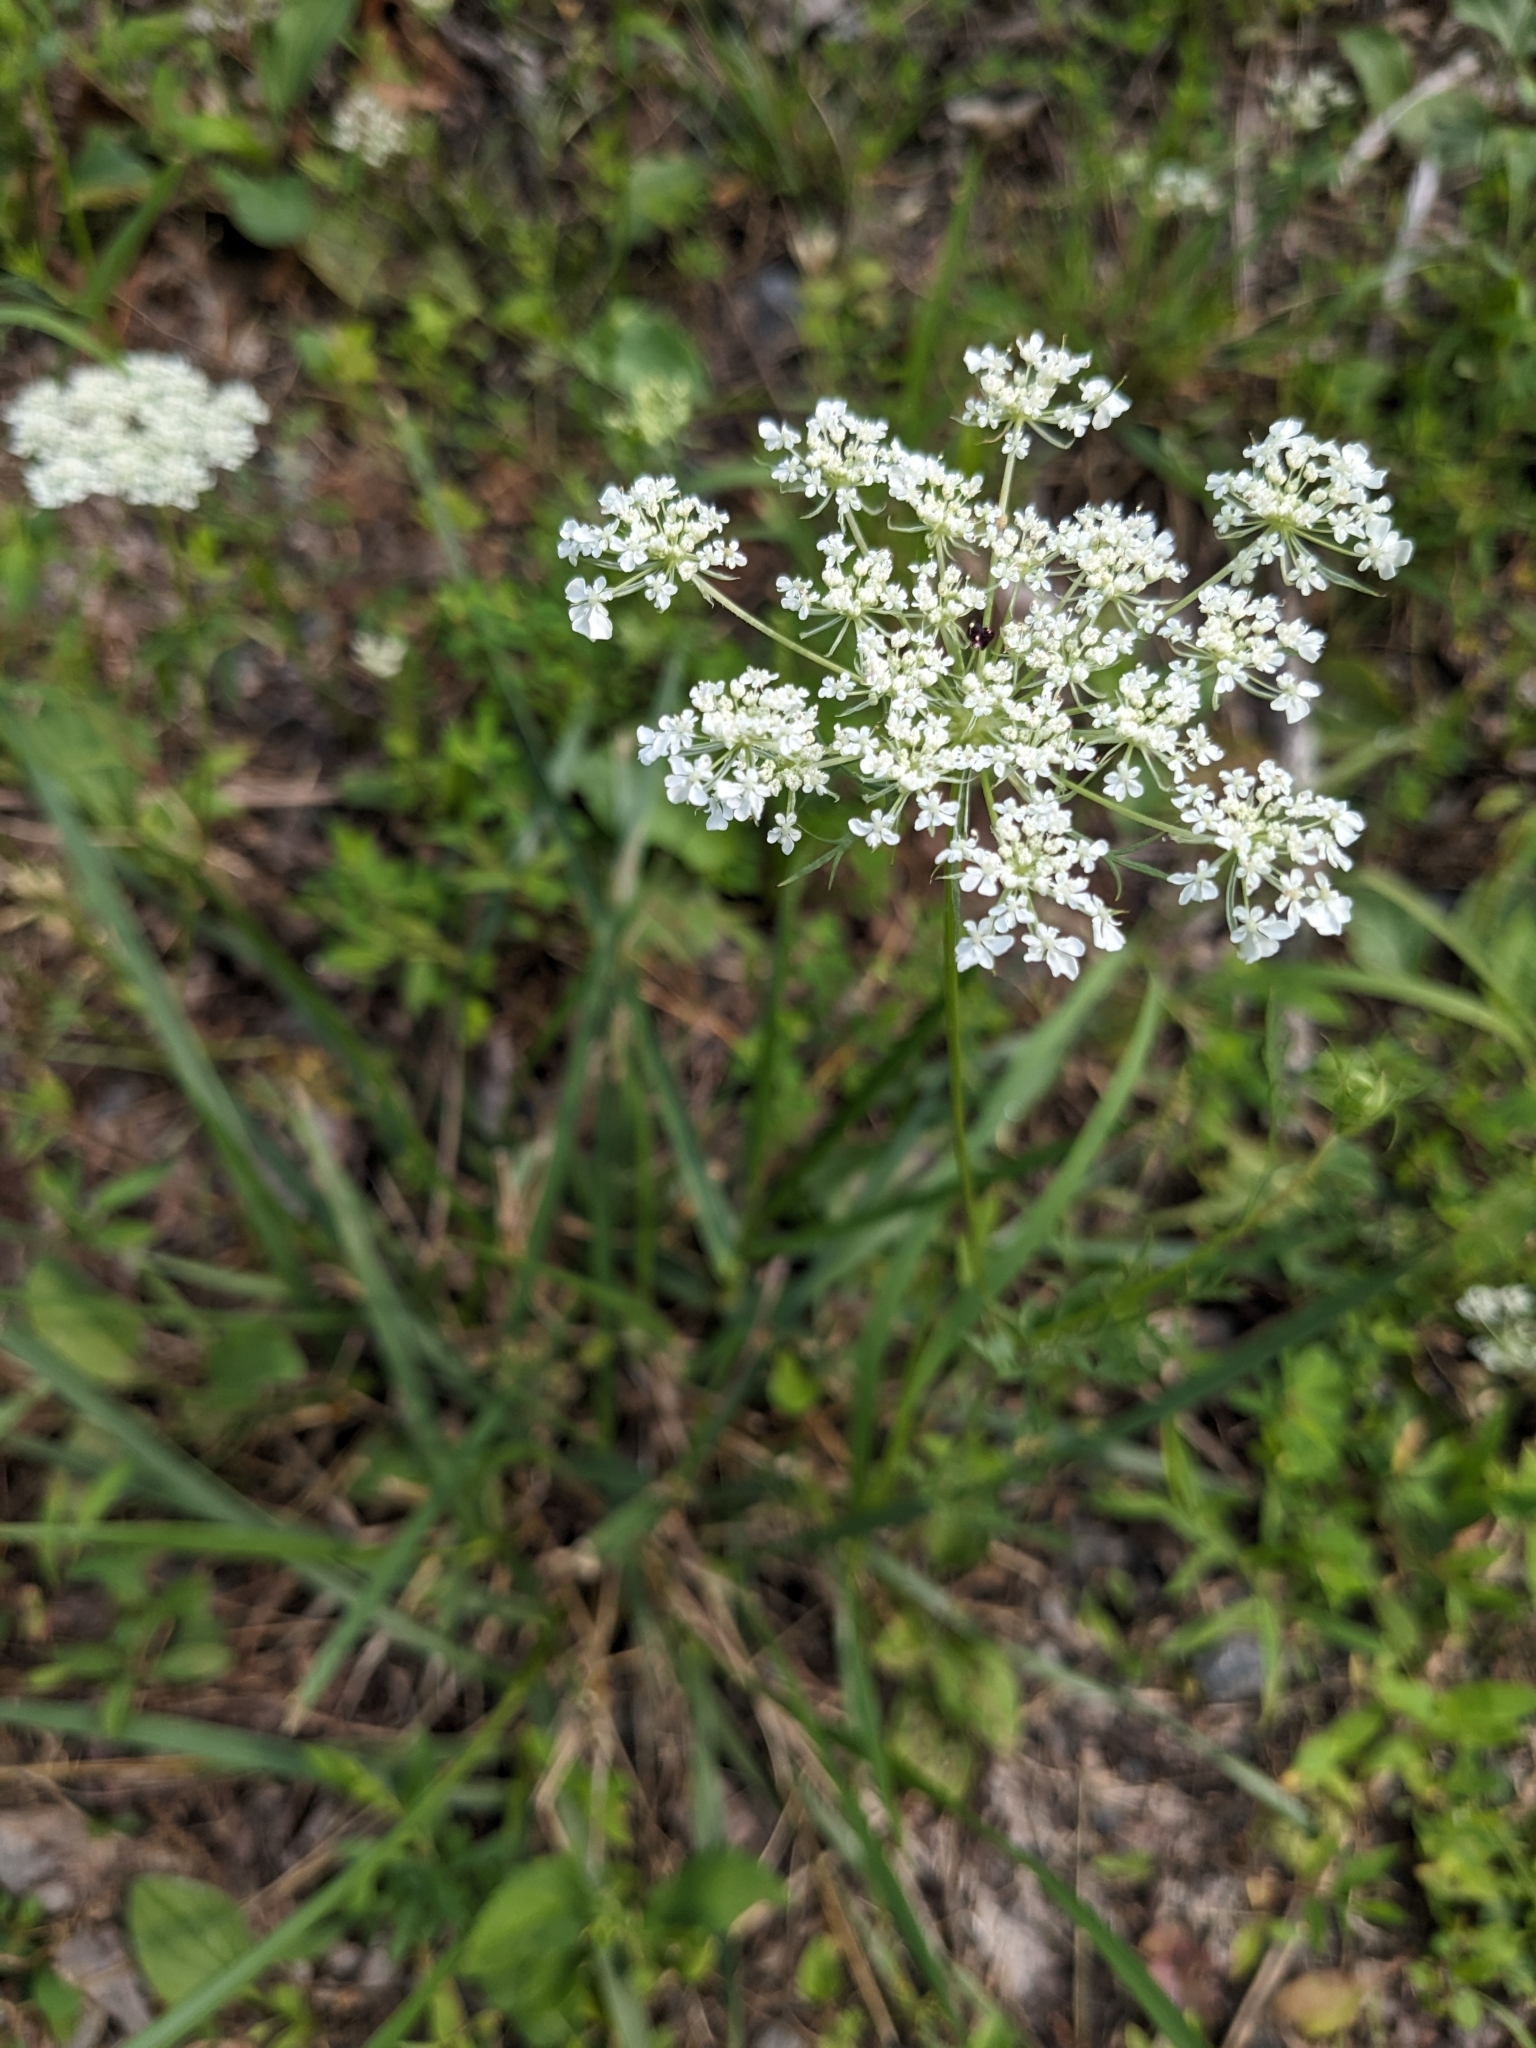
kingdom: Plantae
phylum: Tracheophyta
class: Magnoliopsida
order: Apiales
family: Apiaceae
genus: Daucus
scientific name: Daucus carota
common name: Wild carrot
